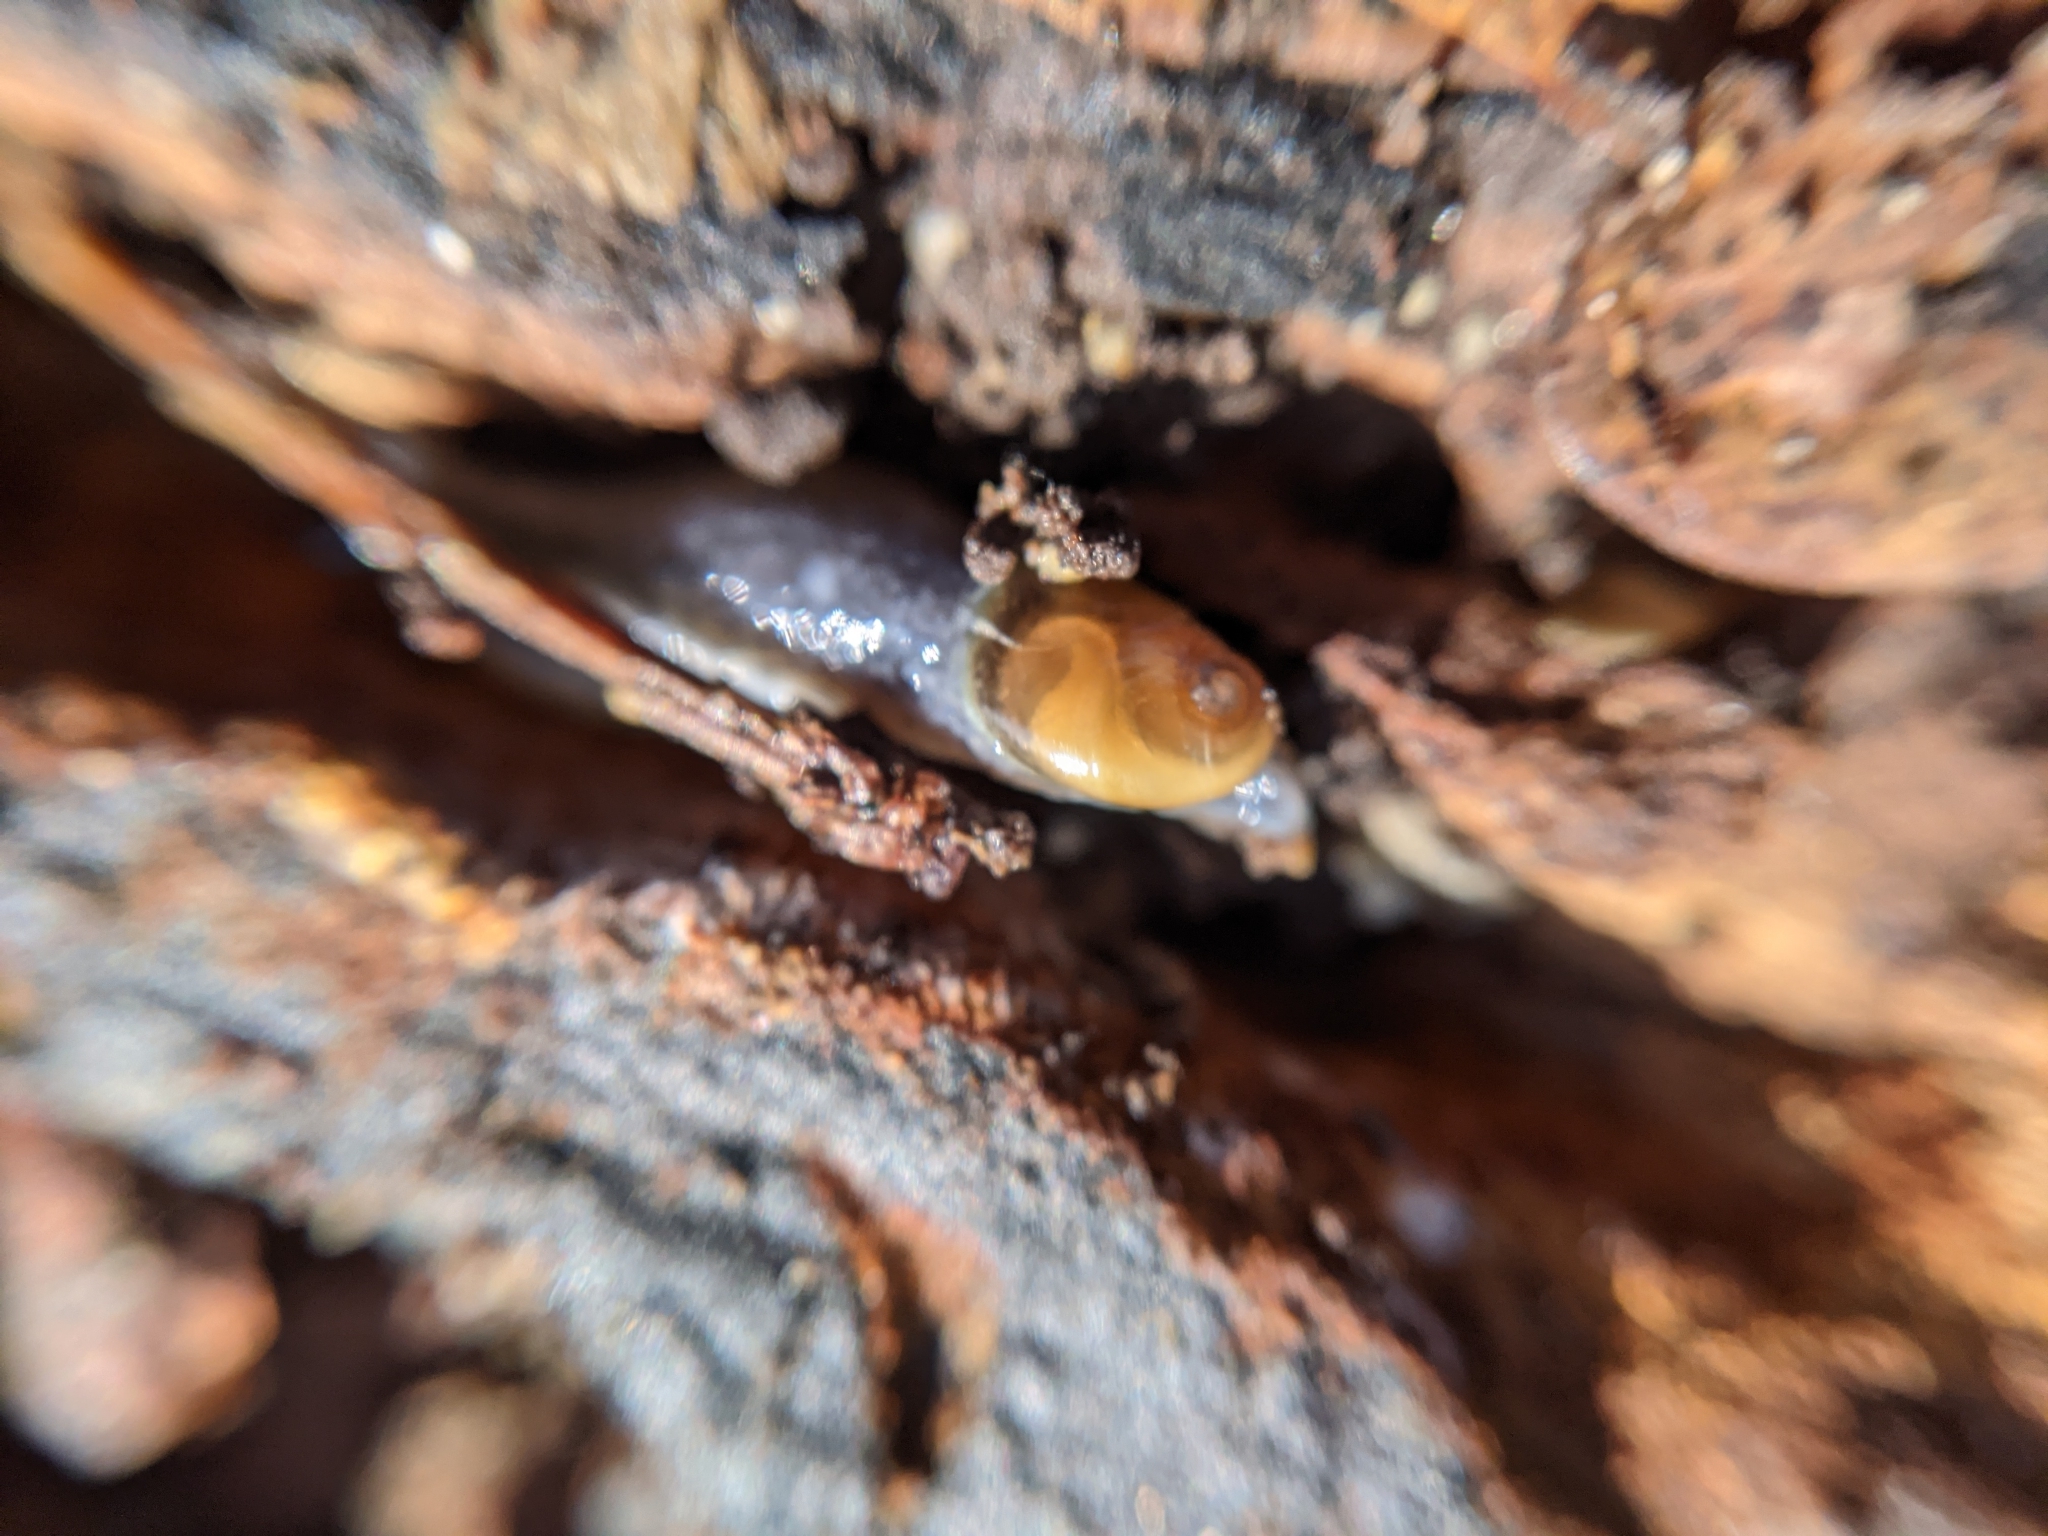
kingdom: Animalia
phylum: Mollusca
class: Gastropoda
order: Stylommatophora
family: Oxychilidae
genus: Daudebardia
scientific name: Daudebardia brevipes
